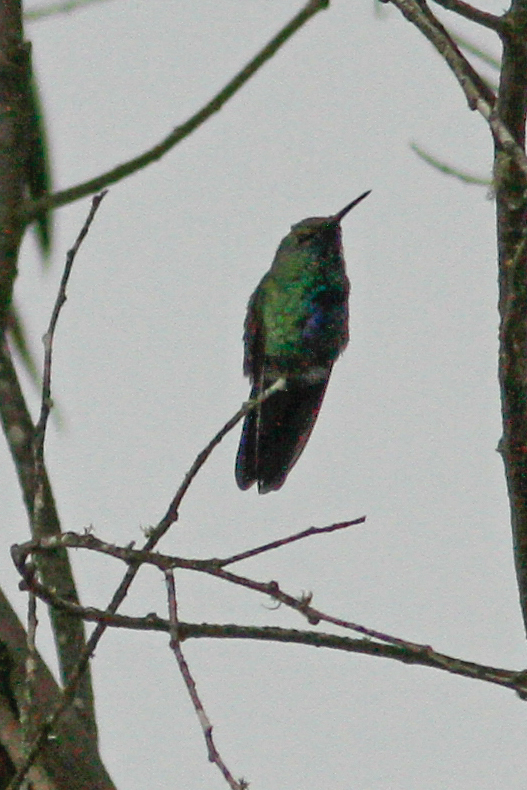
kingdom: Animalia
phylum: Chordata
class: Aves
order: Apodiformes
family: Trochilidae
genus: Colibri
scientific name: Colibri coruscans
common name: Sparkling violetear
